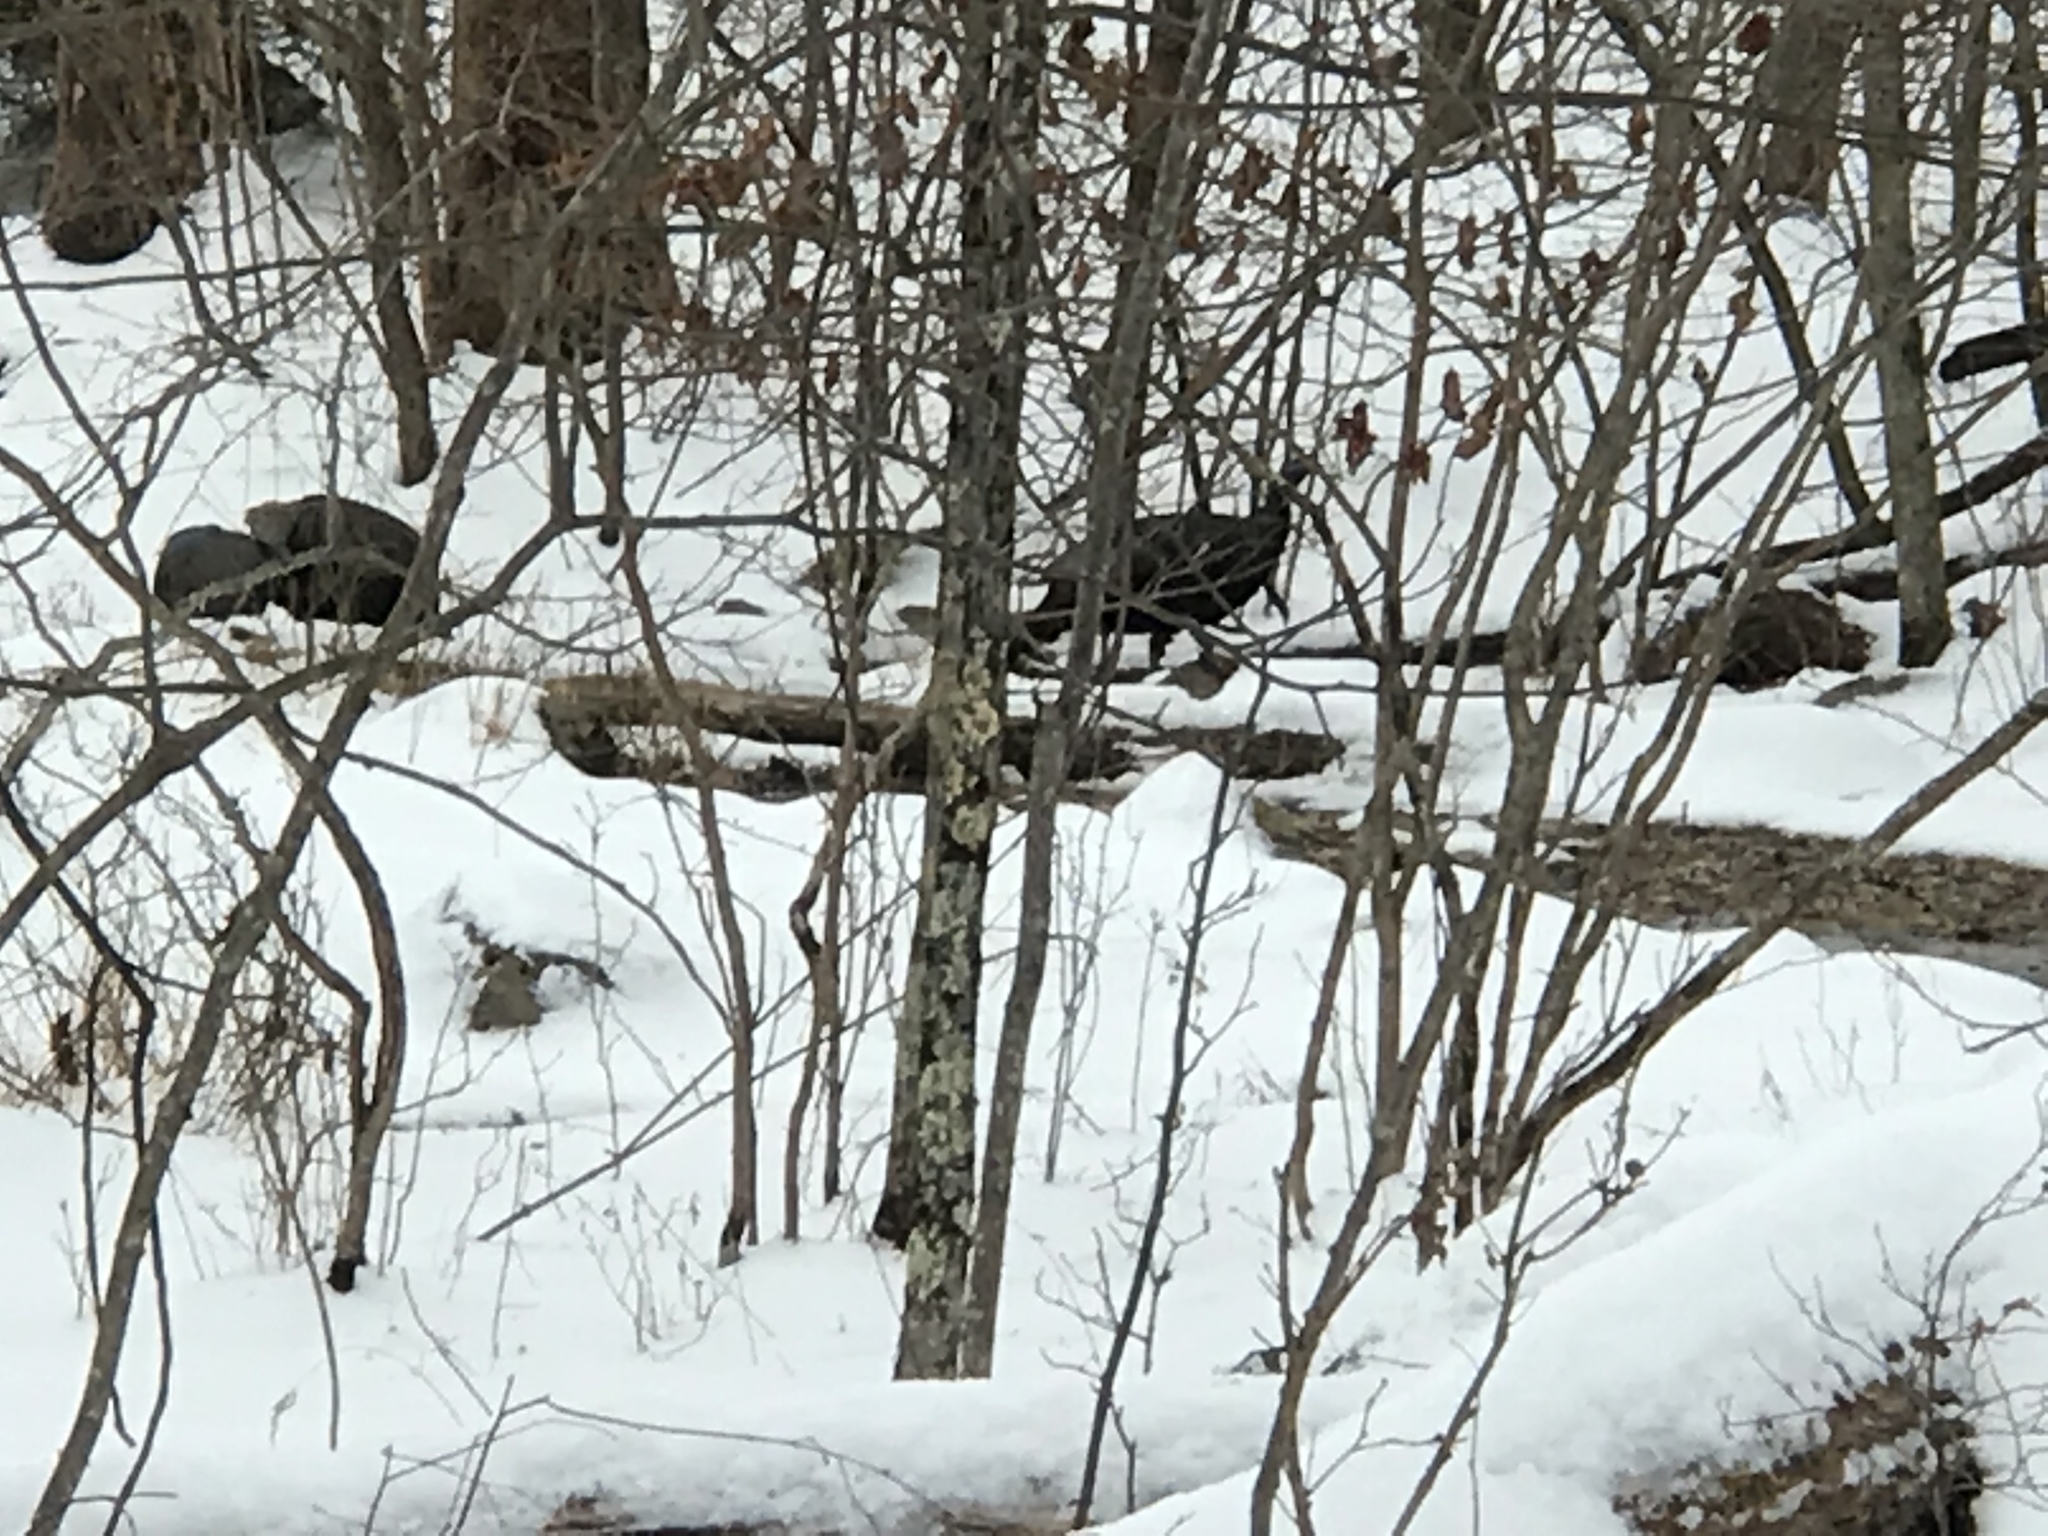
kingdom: Animalia
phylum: Chordata
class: Aves
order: Galliformes
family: Phasianidae
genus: Meleagris
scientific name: Meleagris gallopavo
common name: Wild turkey
